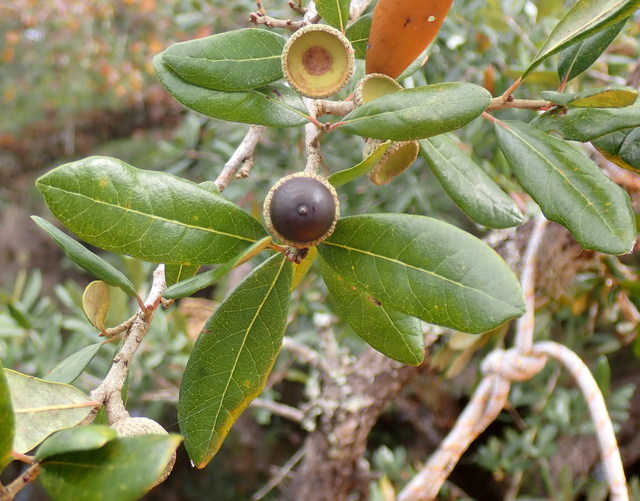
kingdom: Plantae
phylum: Tracheophyta
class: Magnoliopsida
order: Fagales
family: Fagaceae
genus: Quercus
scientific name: Quercus virginiana
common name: Southern live oak
